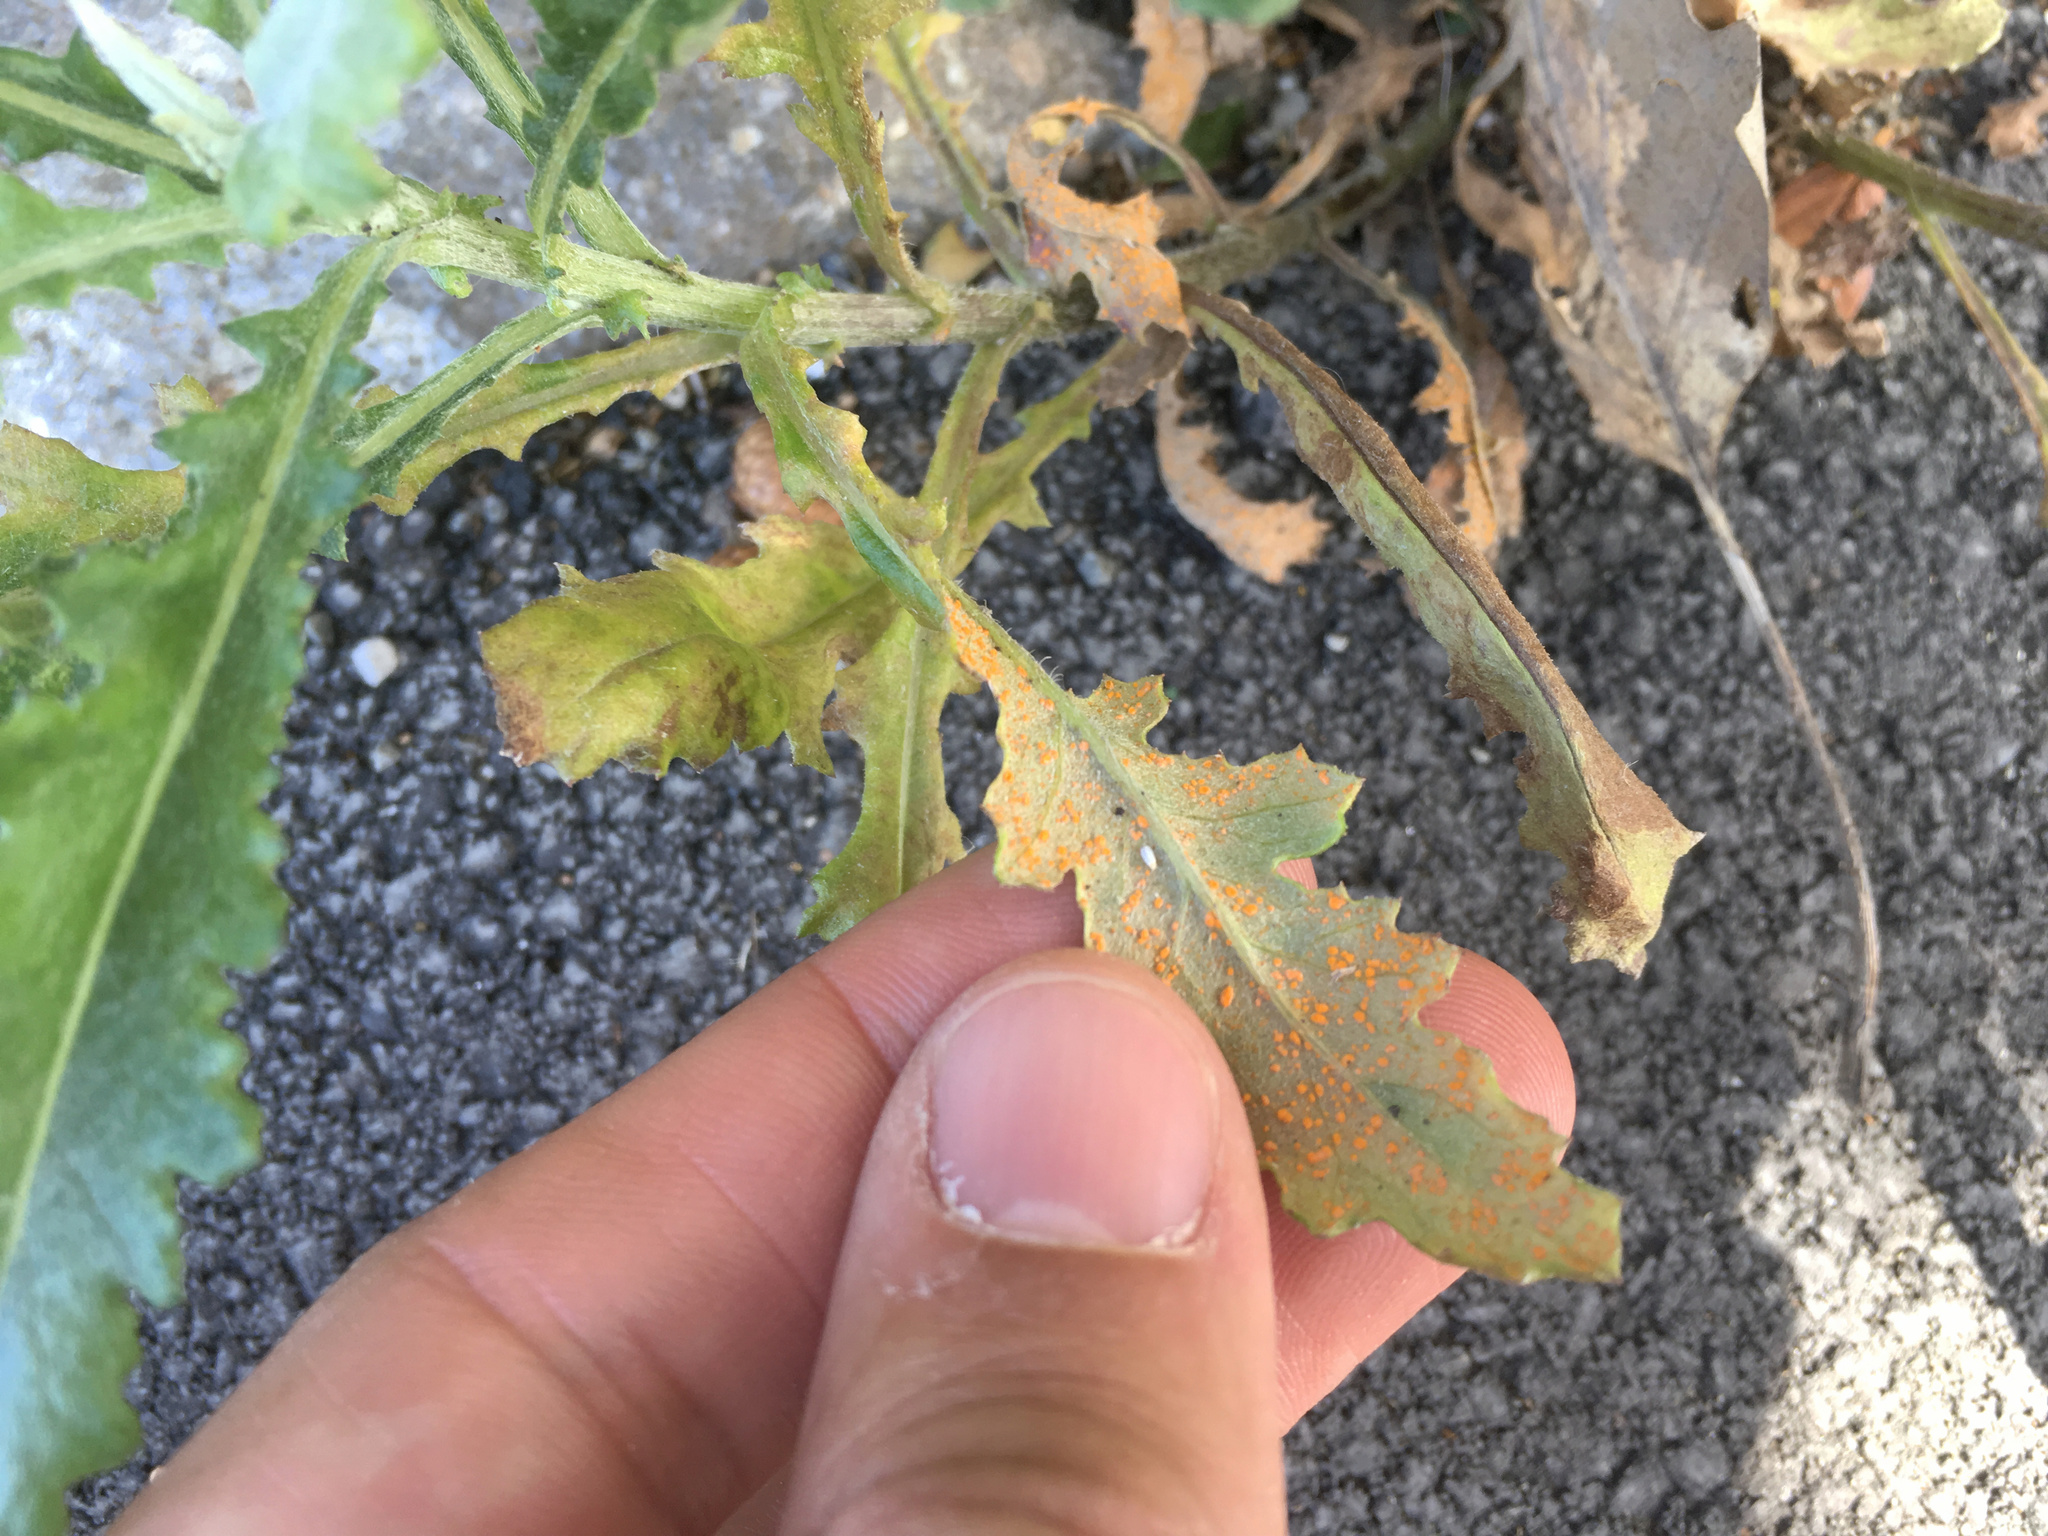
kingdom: Fungi
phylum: Basidiomycota
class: Pucciniomycetes
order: Pucciniales
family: Coleosporiaceae
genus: Coleosporium
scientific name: Coleosporium tussilaginis
